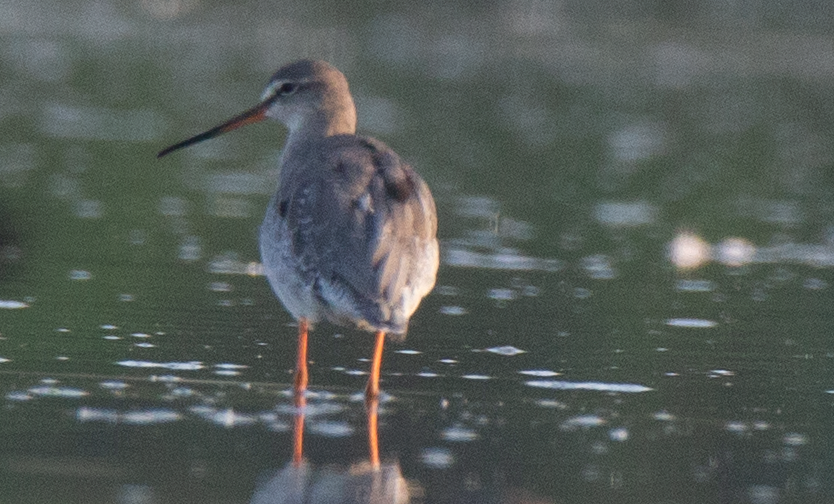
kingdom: Animalia
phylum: Chordata
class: Aves
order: Charadriiformes
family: Scolopacidae
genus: Tringa
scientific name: Tringa erythropus
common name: Spotted redshank
